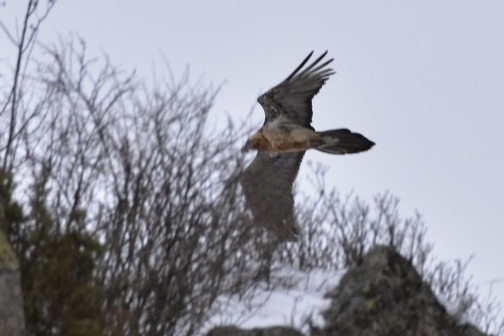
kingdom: Animalia
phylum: Chordata
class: Aves
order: Accipitriformes
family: Accipitridae
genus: Gypaetus
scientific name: Gypaetus barbatus
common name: Bearded vulture
